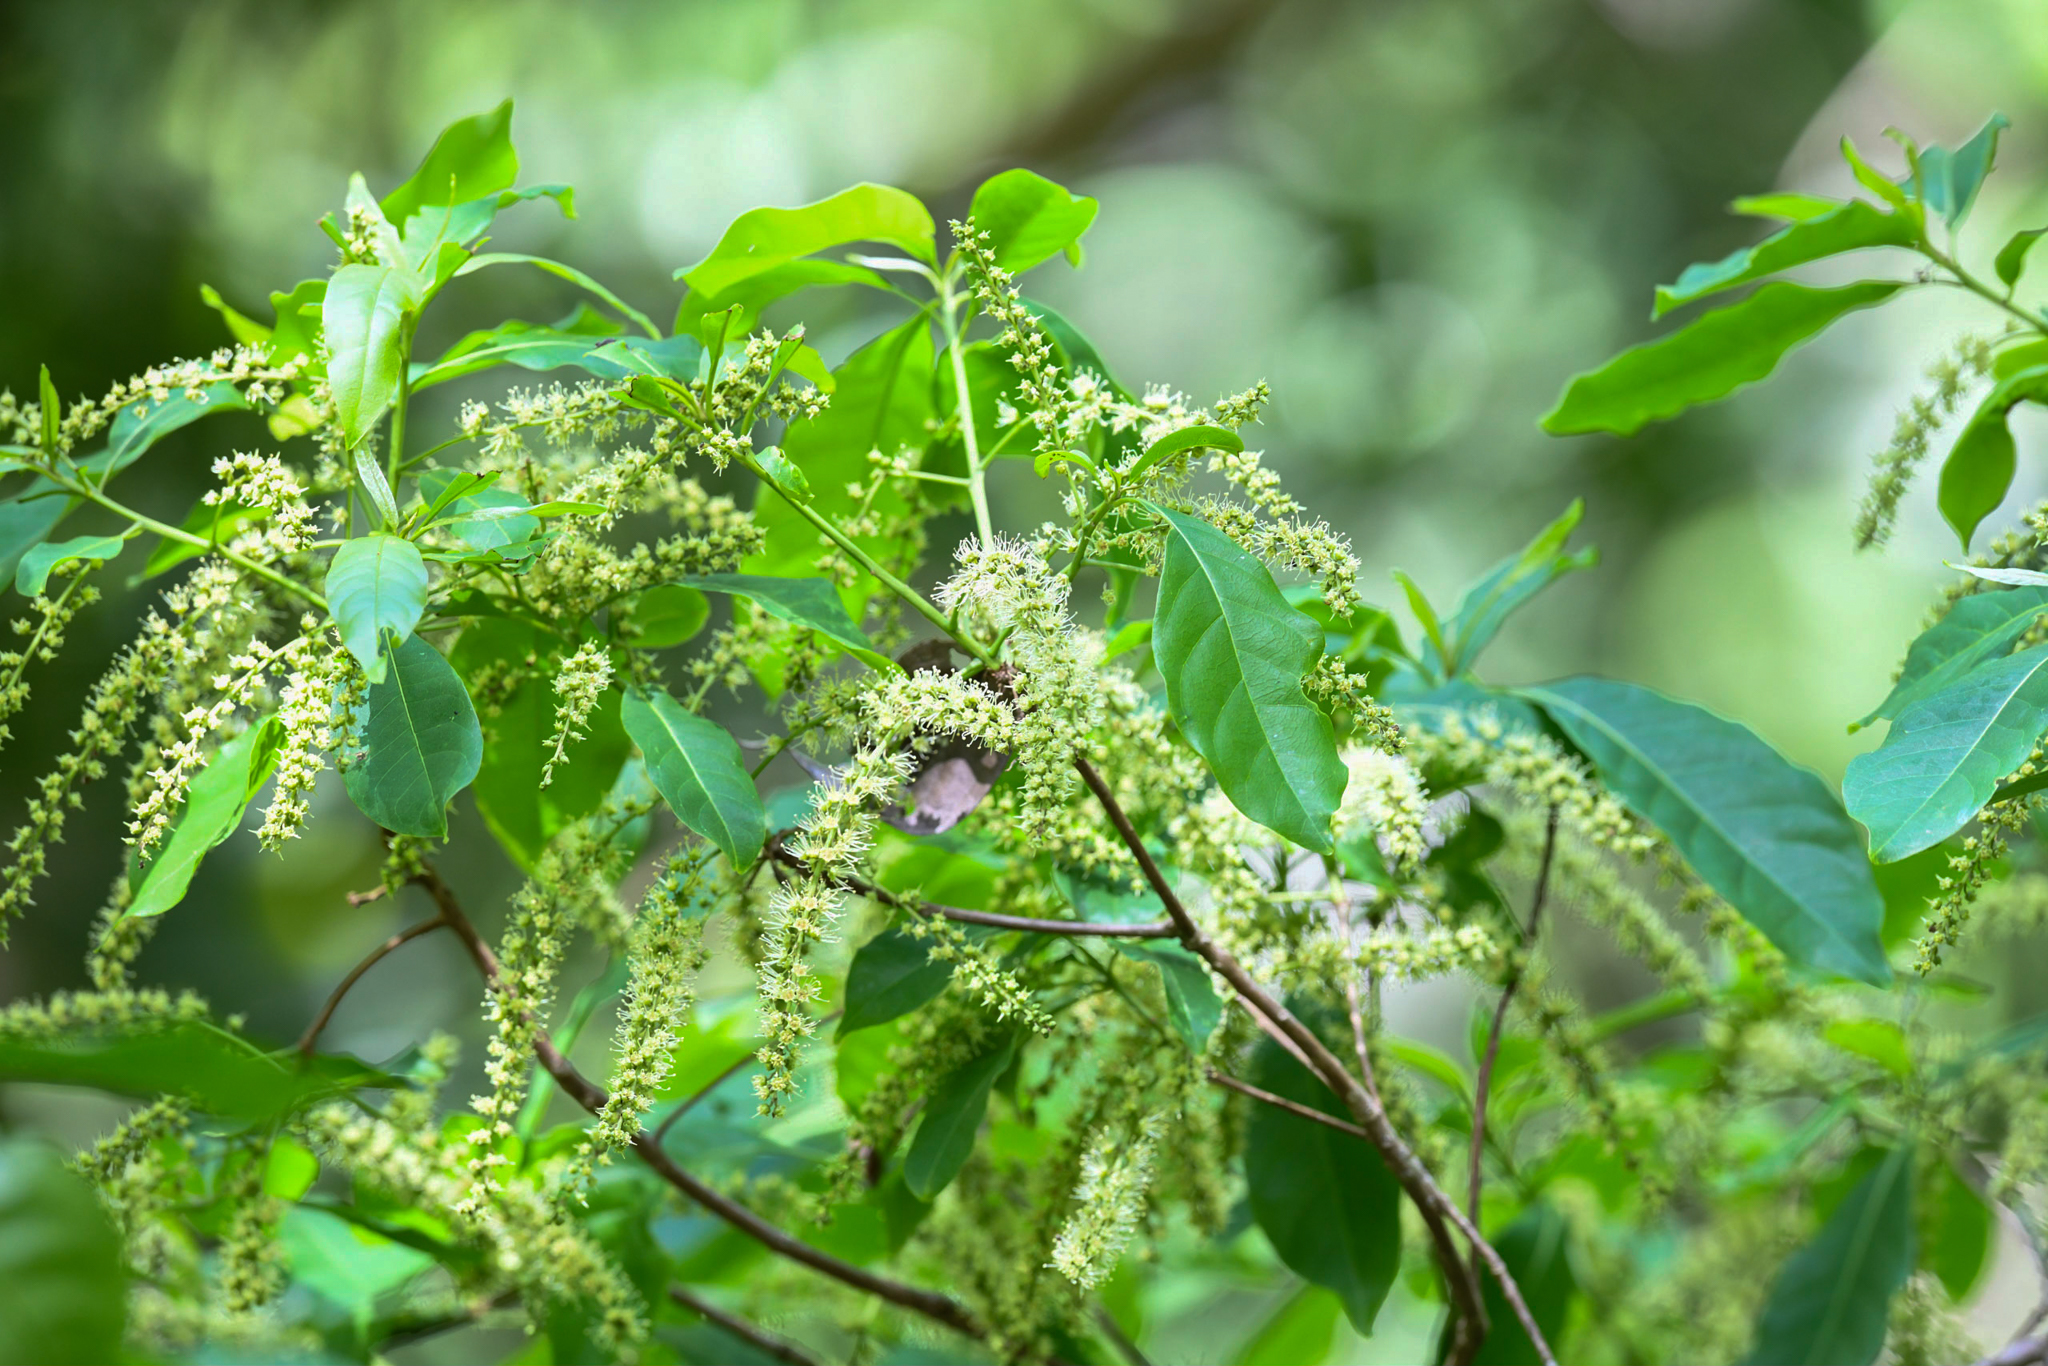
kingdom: Plantae
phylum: Tracheophyta
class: Magnoliopsida
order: Myrtales
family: Combretaceae
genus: Terminalia
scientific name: Terminalia oblonga
